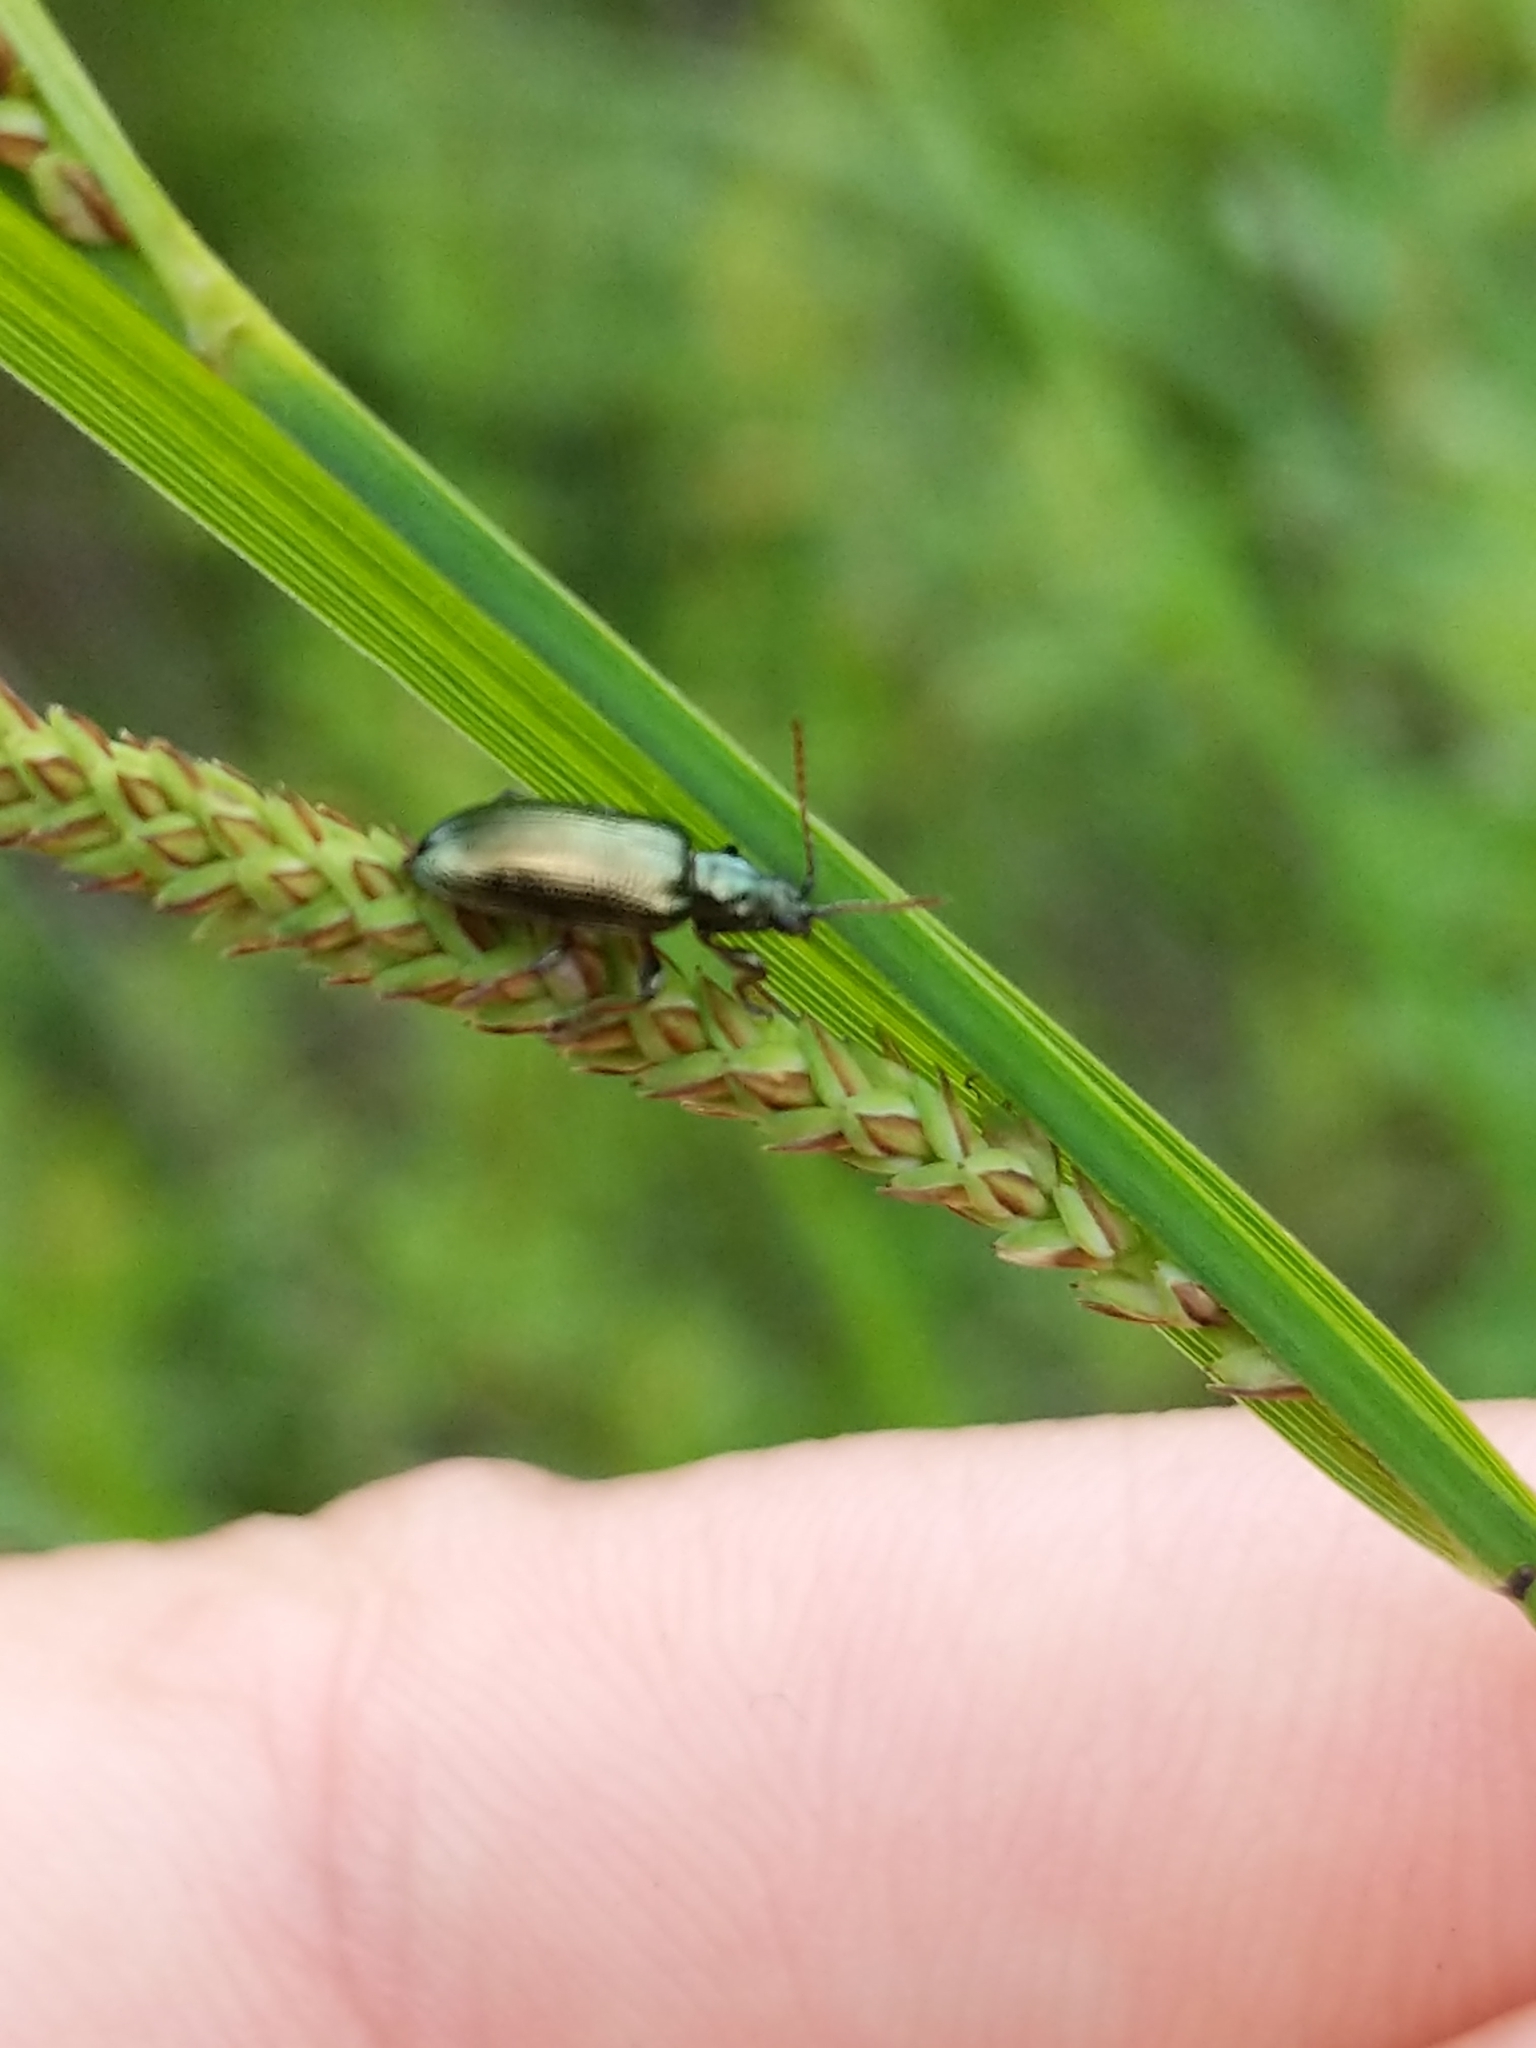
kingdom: Animalia
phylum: Arthropoda
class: Insecta
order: Coleoptera
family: Chrysomelidae
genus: Plateumaris
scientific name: Plateumaris rufa
